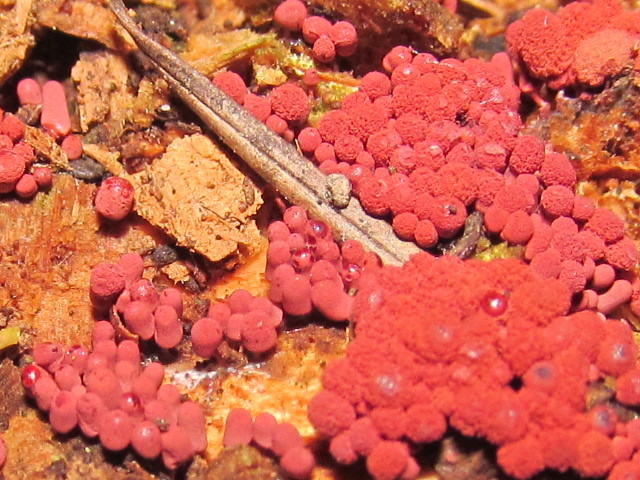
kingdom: Protozoa
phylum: Mycetozoa
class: Myxomycetes
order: Trichiales
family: Arcyriaceae
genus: Arcyria
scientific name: Arcyria denudata
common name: Carnival candy slime mold
